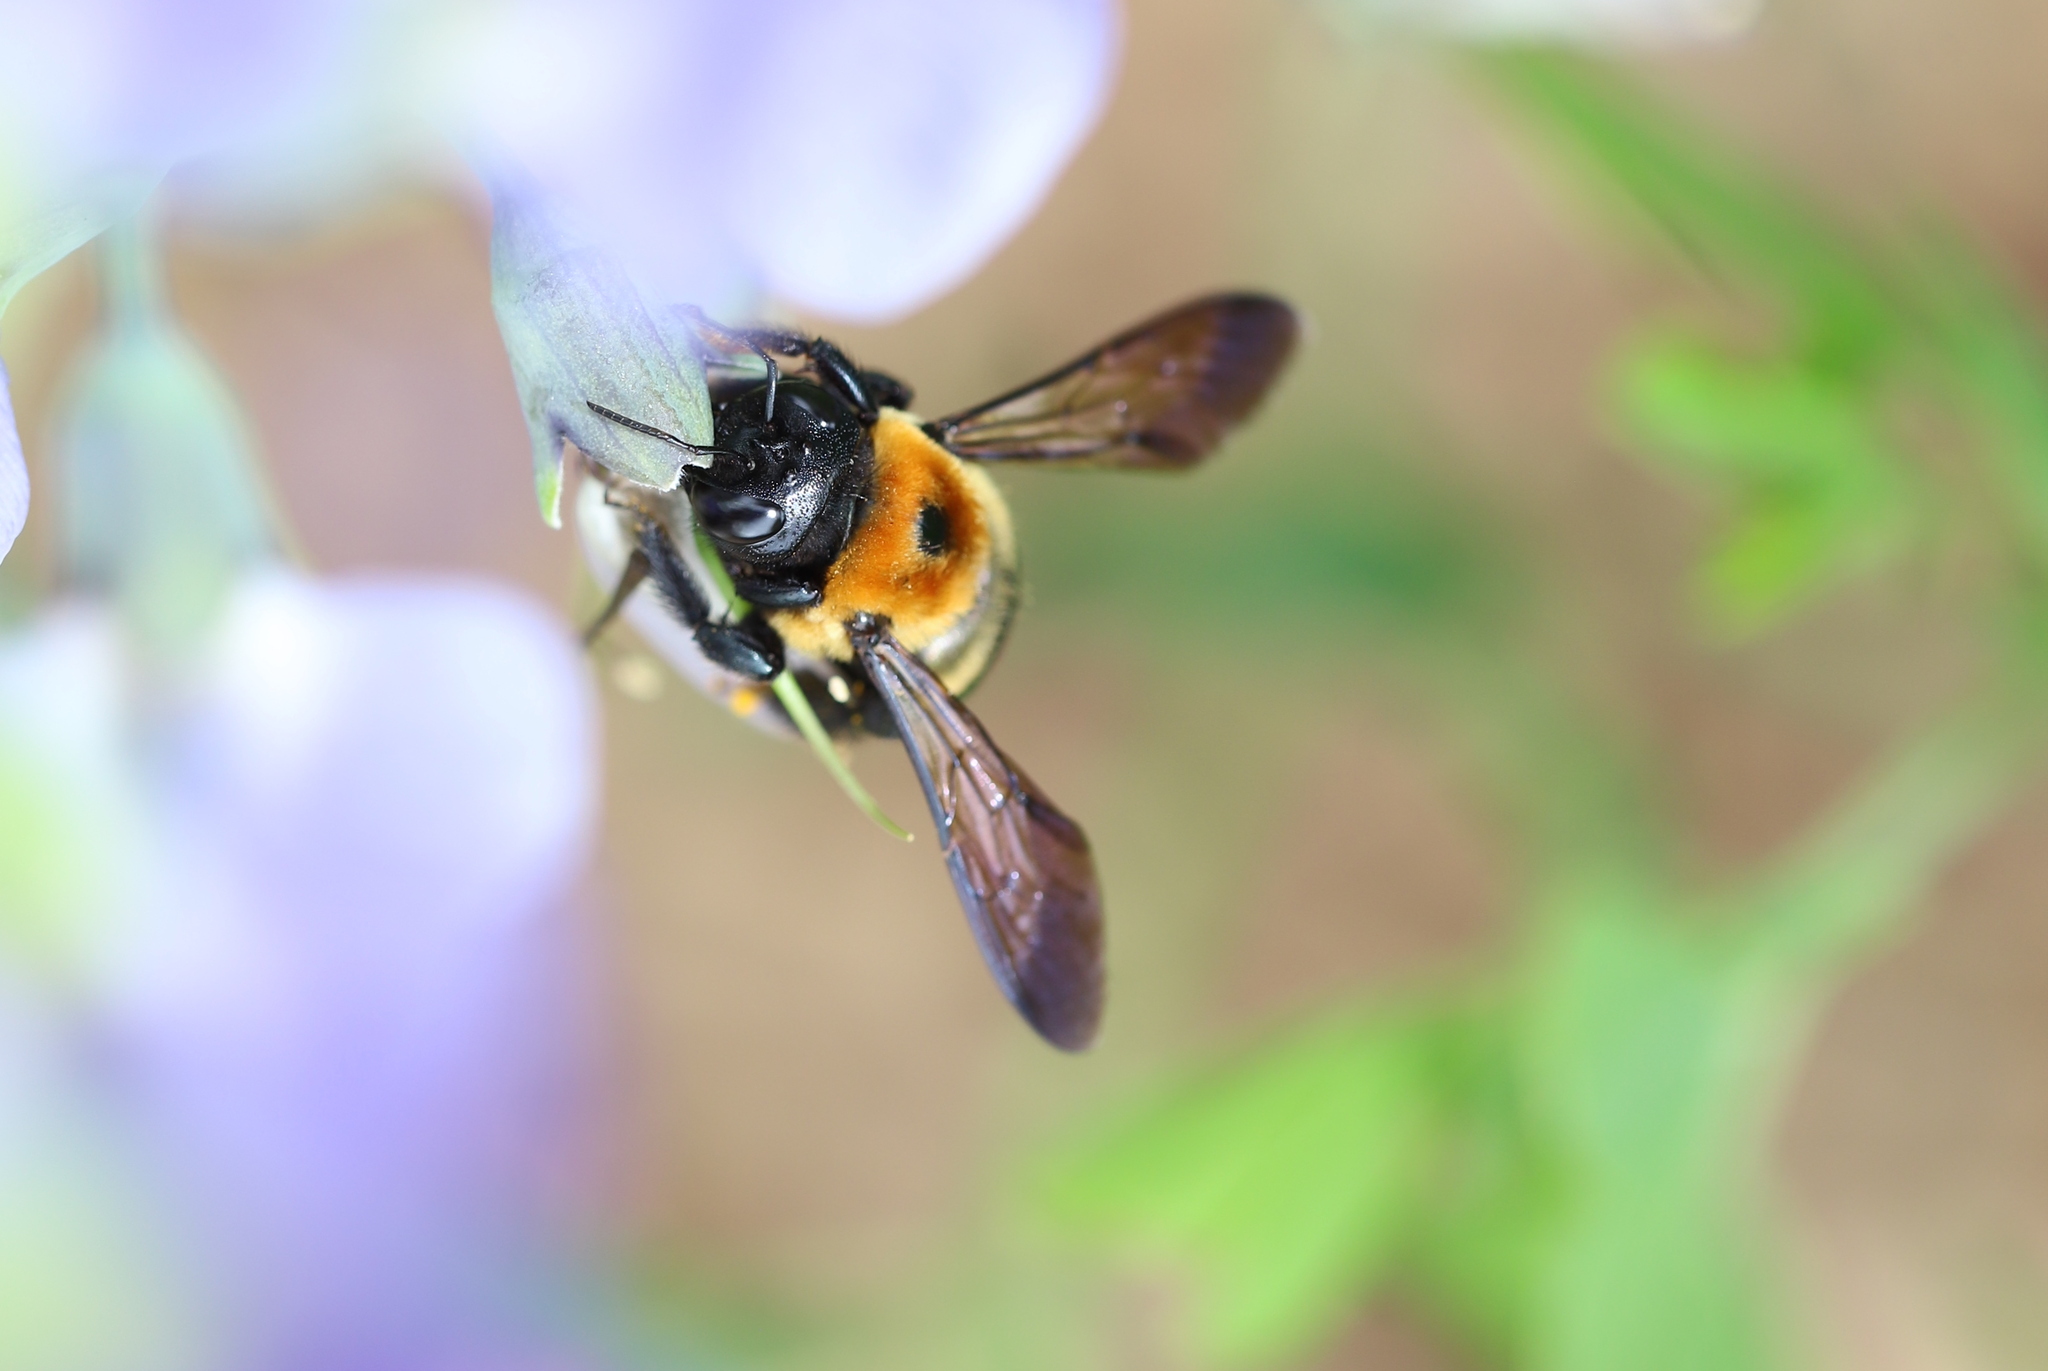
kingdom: Animalia
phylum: Arthropoda
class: Insecta
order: Hymenoptera
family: Apidae
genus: Xylocopa
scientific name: Xylocopa virginica
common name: Carpenter bee
